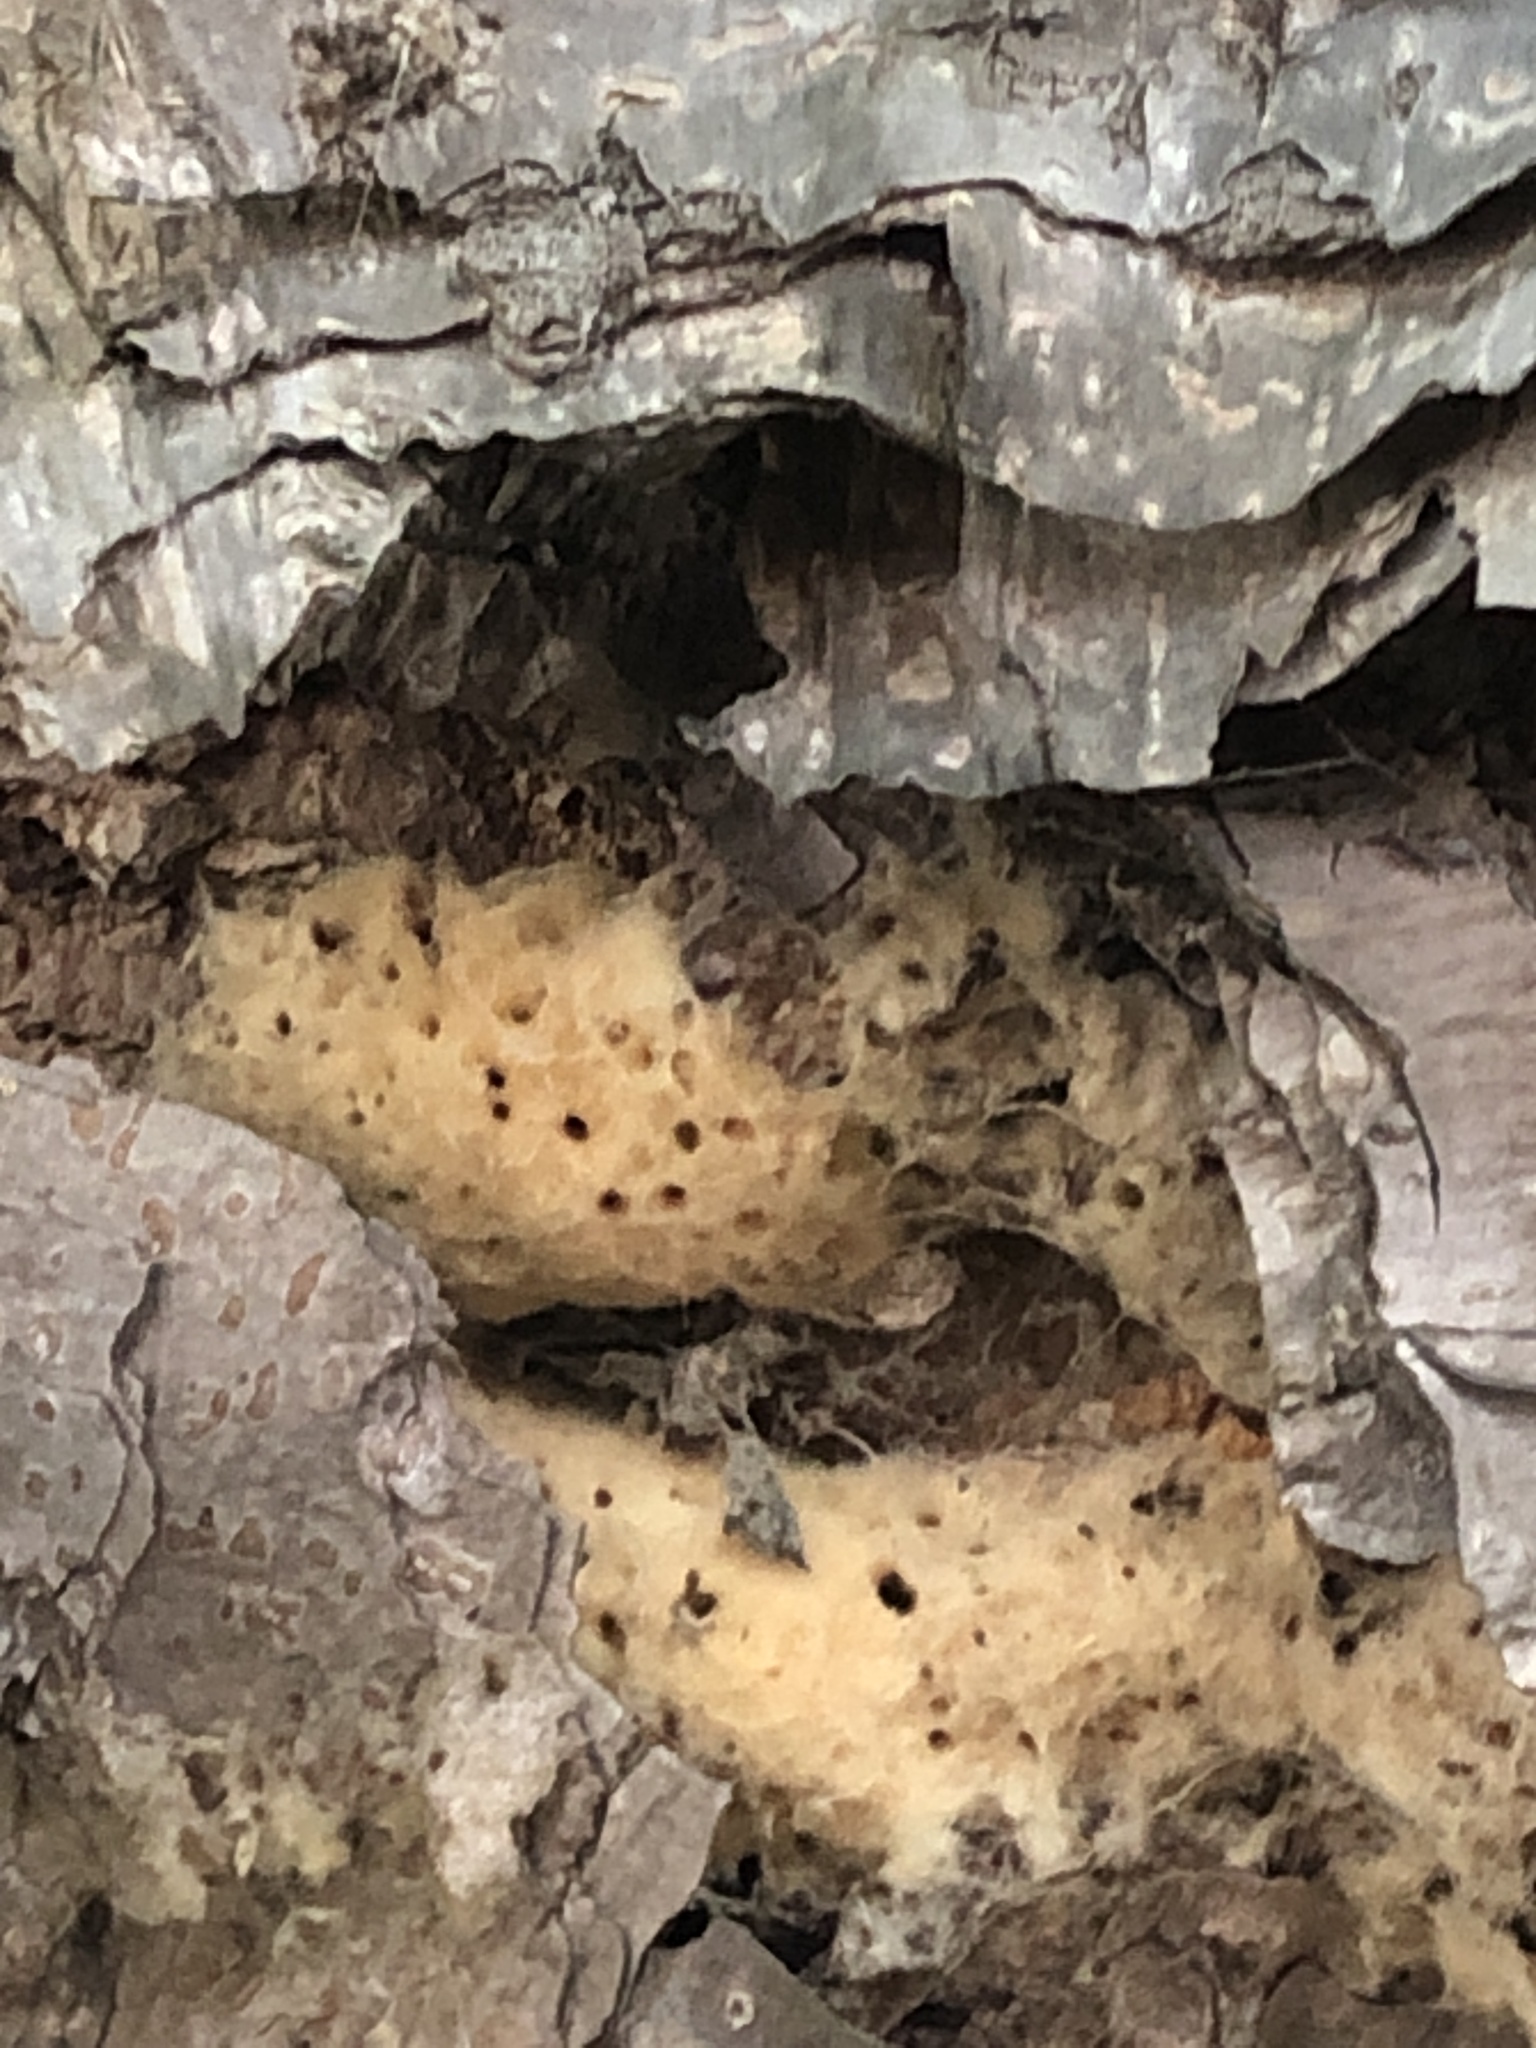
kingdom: Animalia
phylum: Arthropoda
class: Insecta
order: Lepidoptera
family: Erebidae
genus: Lymantria
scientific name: Lymantria dispar
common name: Gypsy moth
